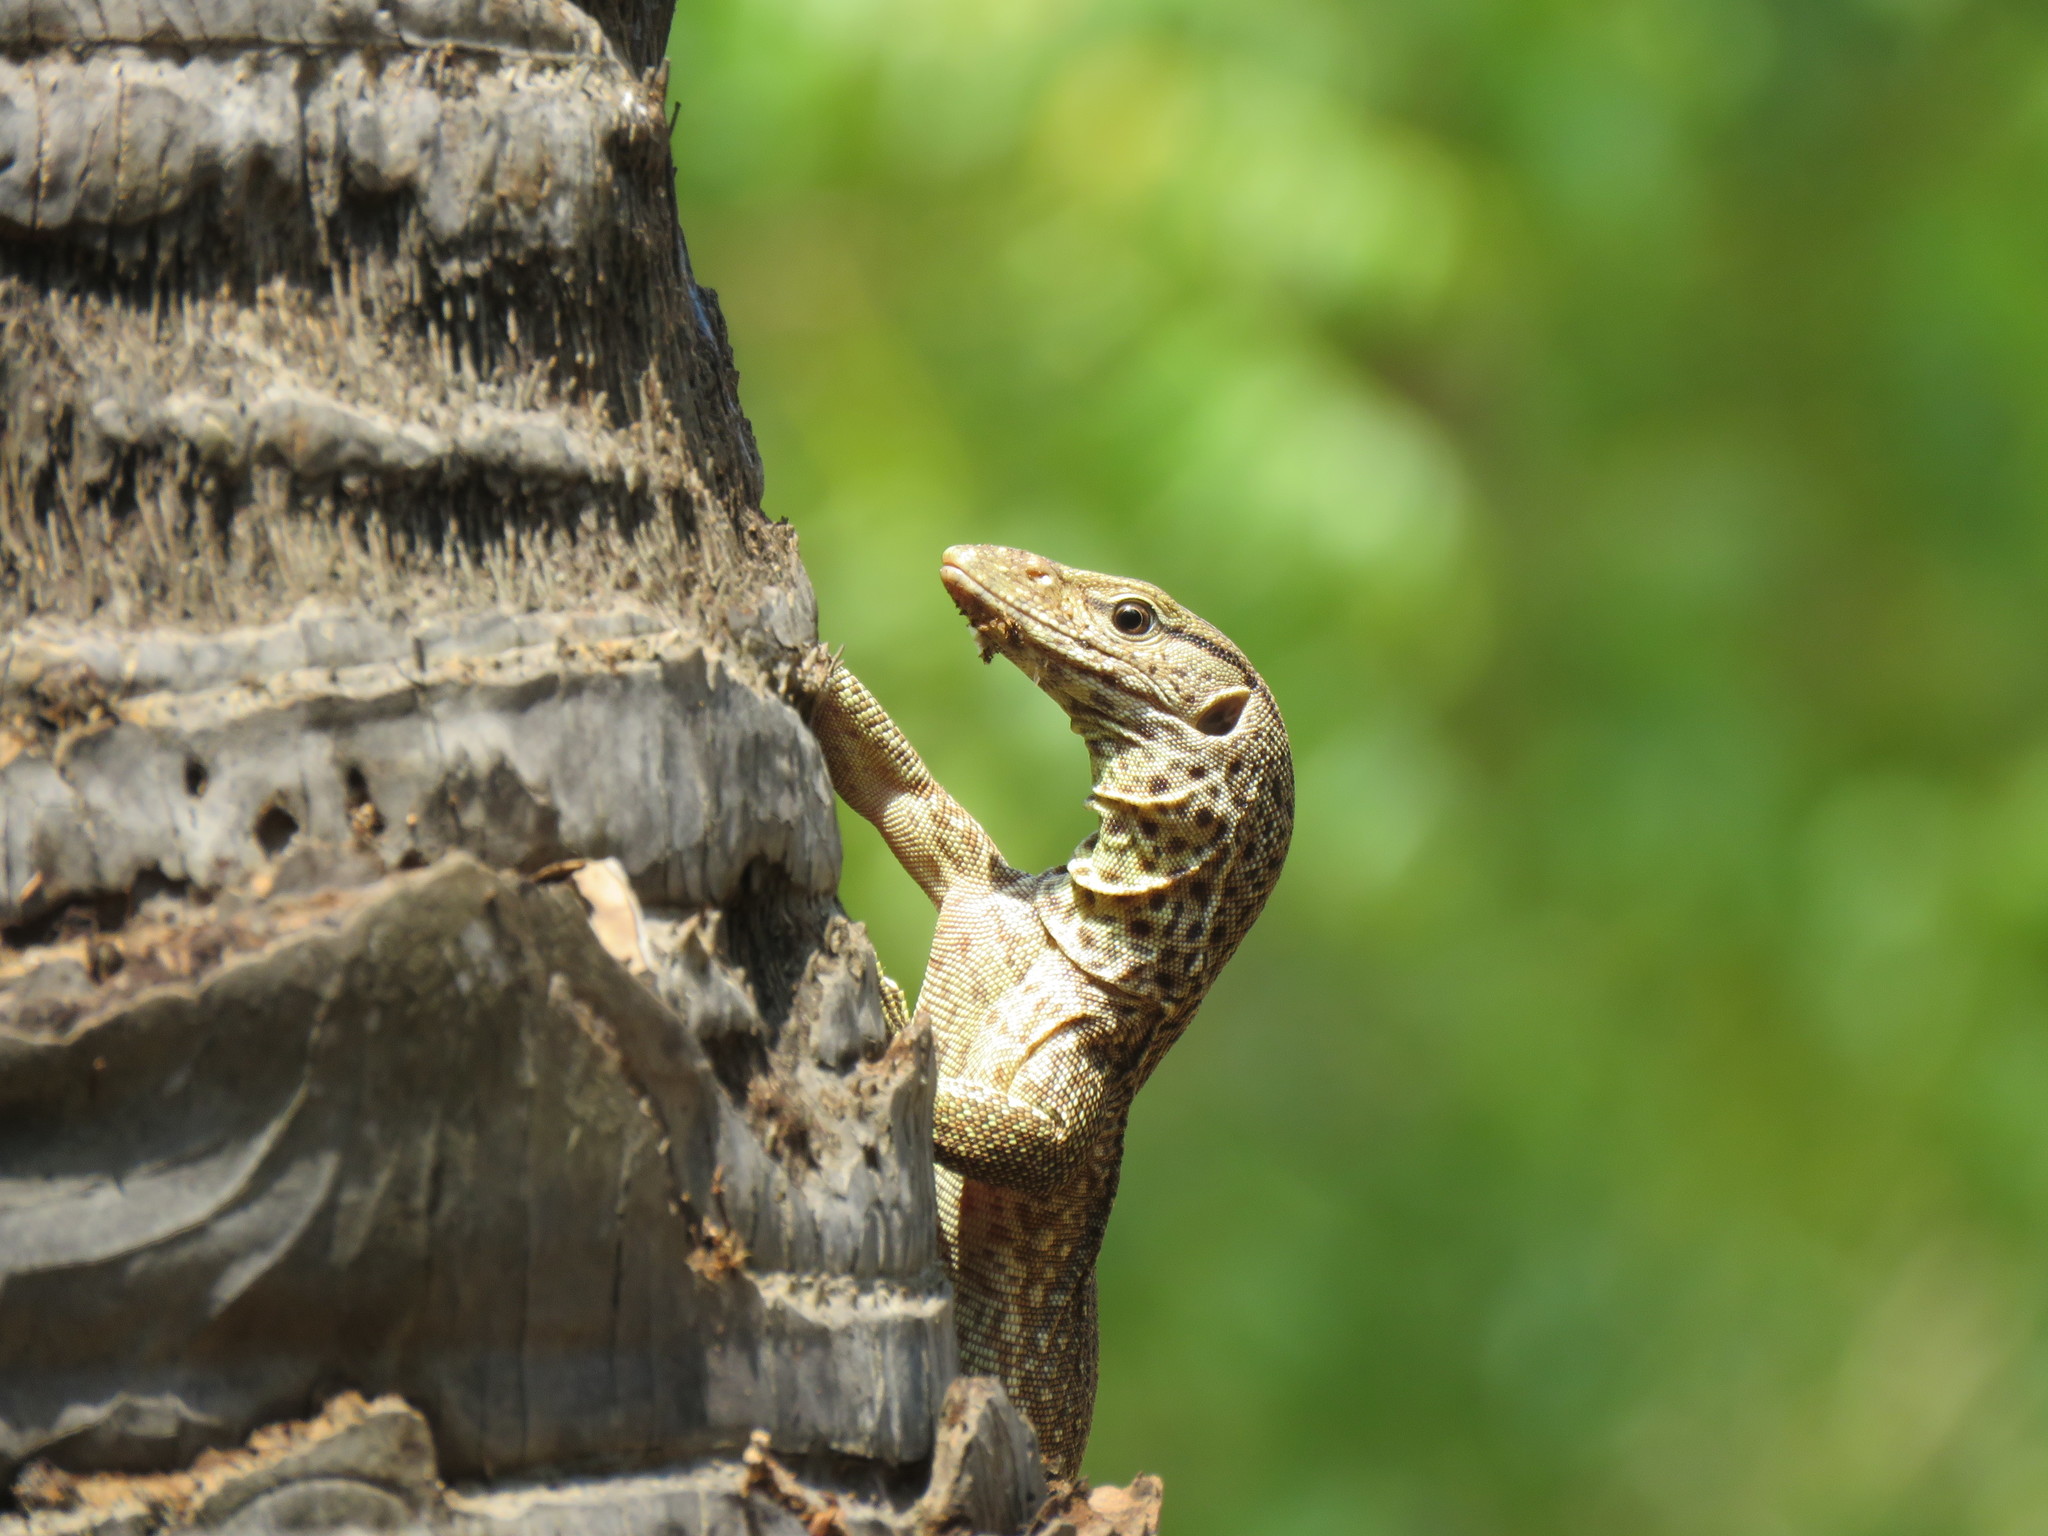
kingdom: Animalia
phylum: Chordata
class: Squamata
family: Varanidae
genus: Varanus
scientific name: Varanus bengalensis
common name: Bengal monitor
